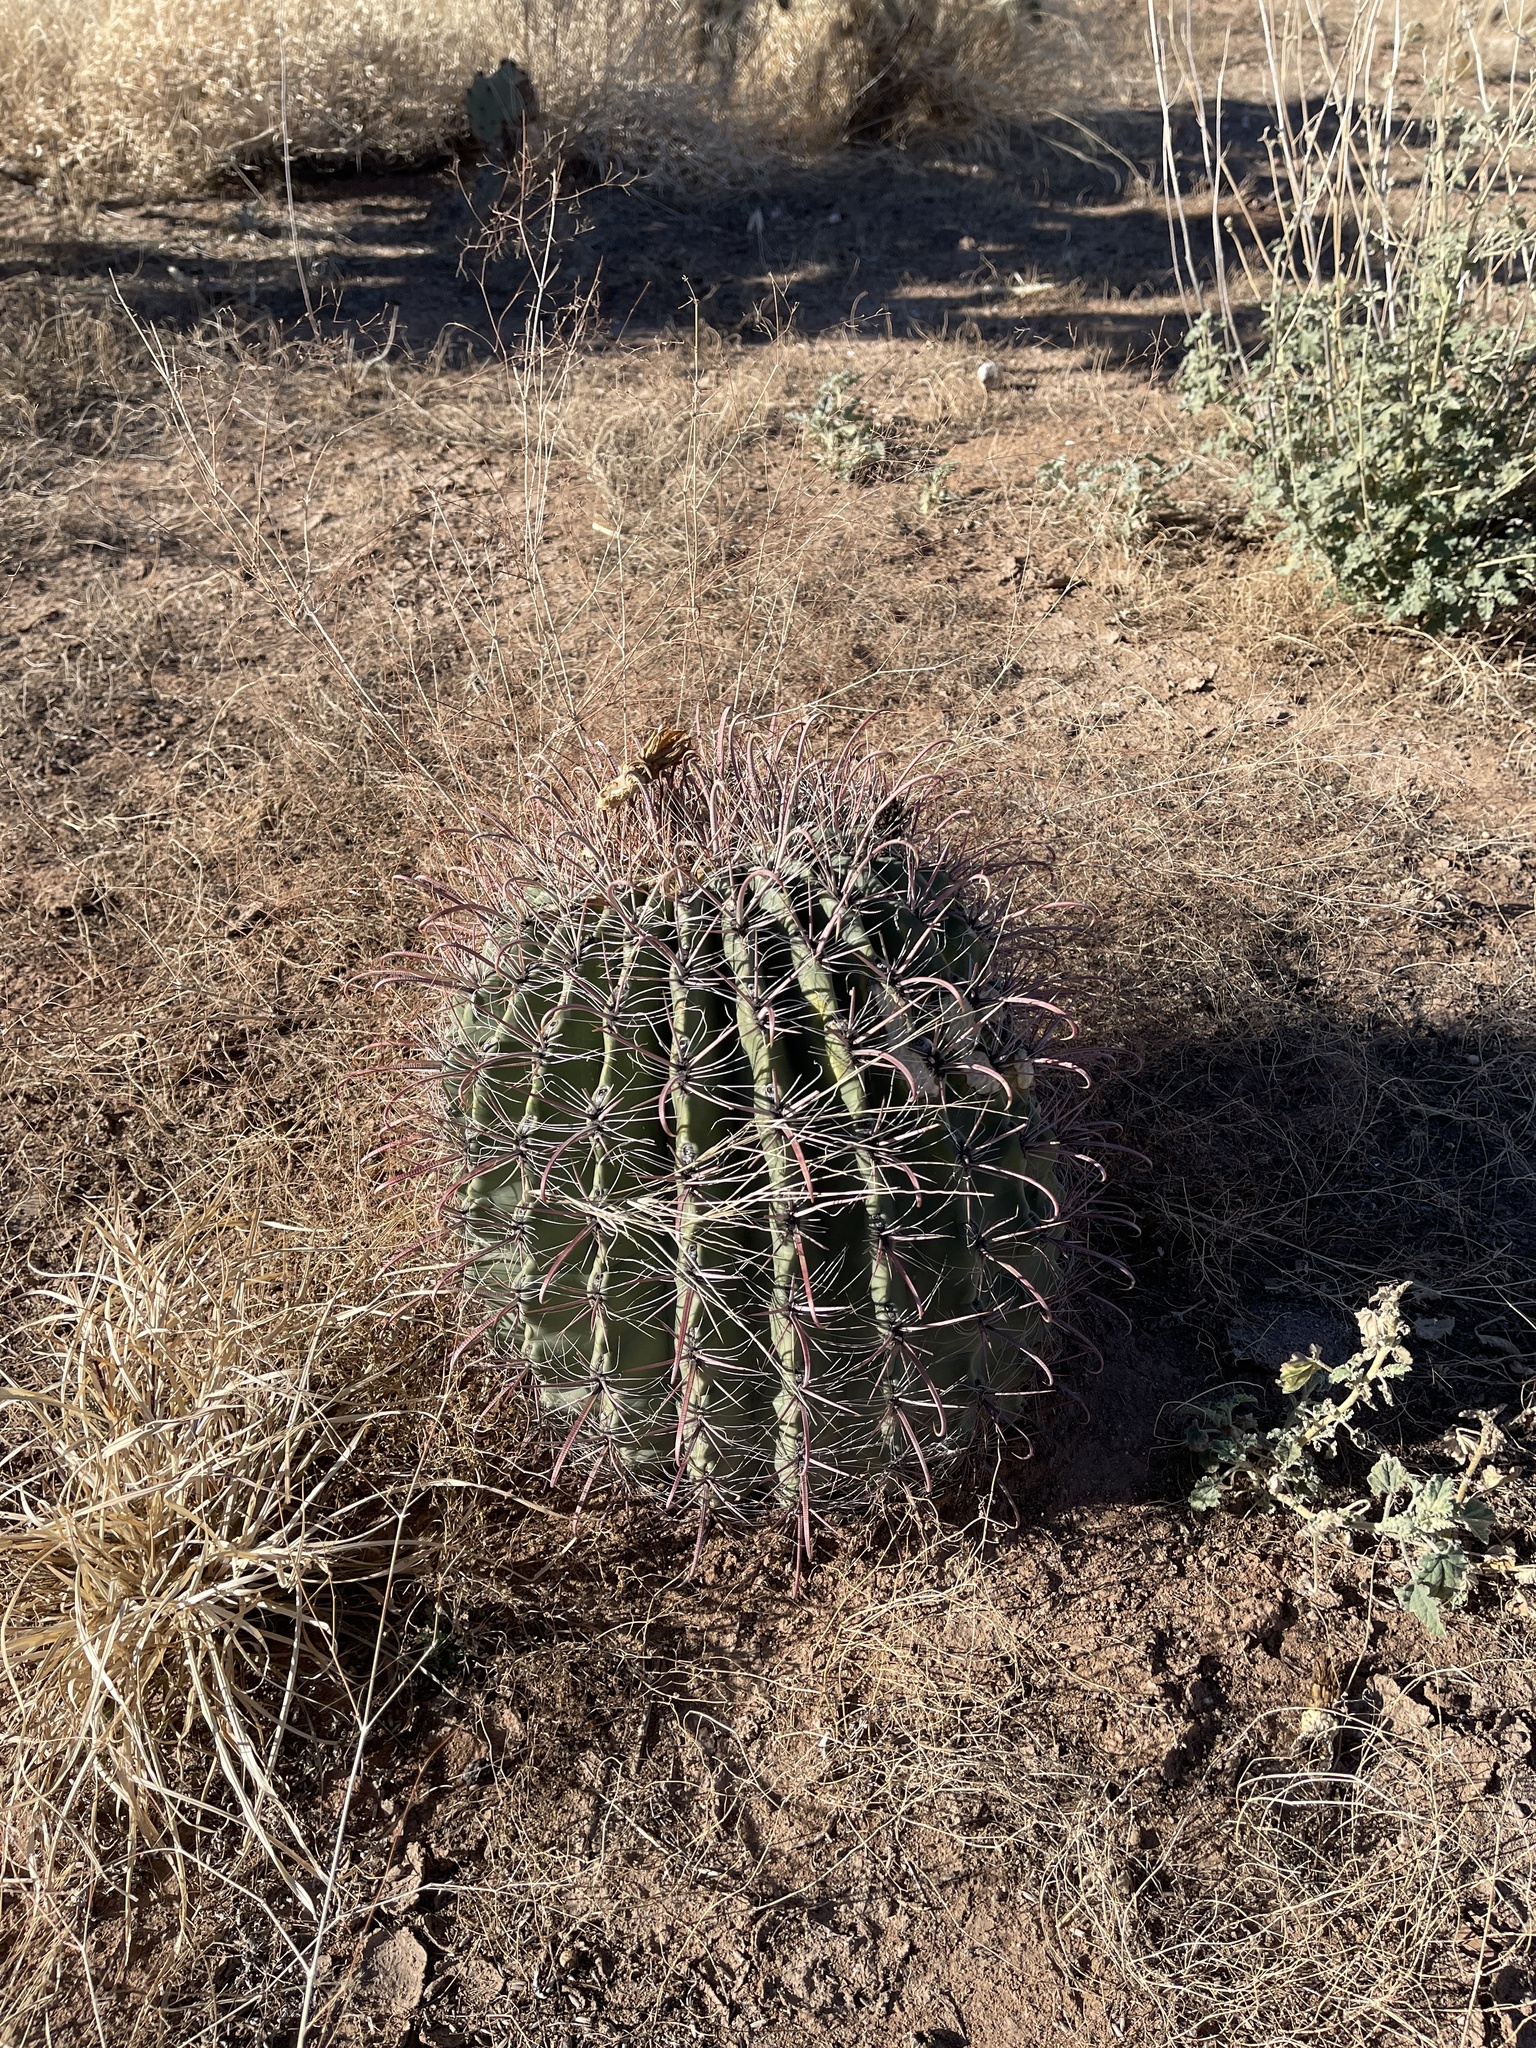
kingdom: Plantae
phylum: Tracheophyta
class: Magnoliopsida
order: Caryophyllales
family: Cactaceae
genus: Ferocactus
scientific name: Ferocactus wislizeni
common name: Candy barrel cactus
